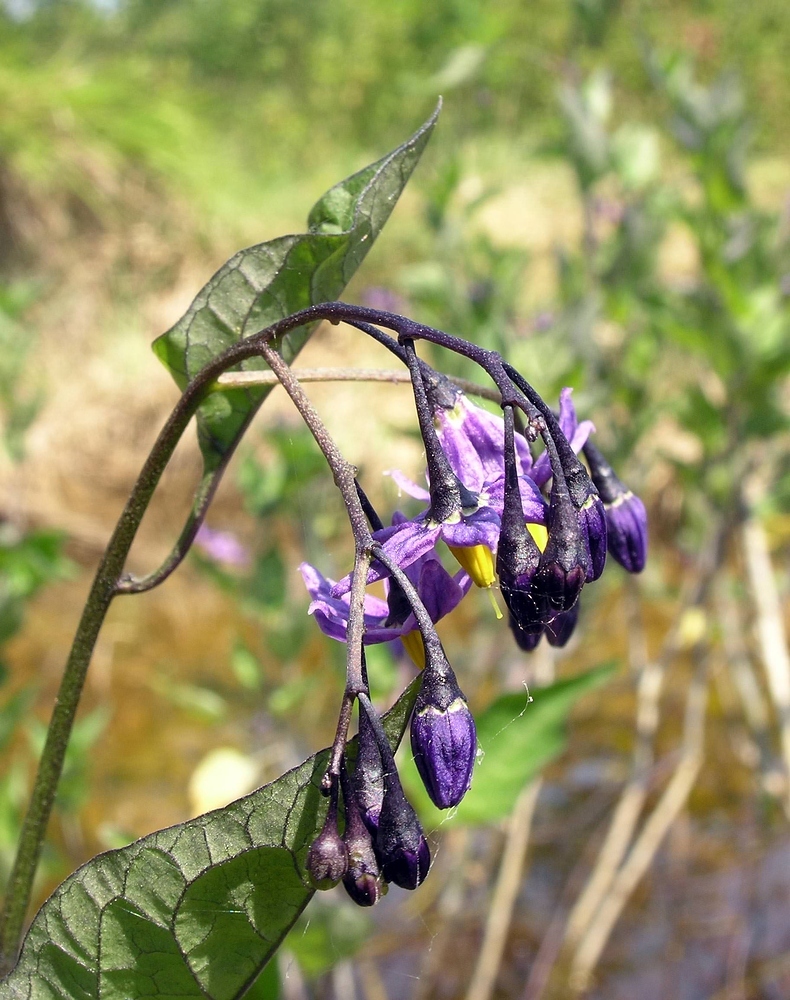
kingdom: Plantae
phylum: Tracheophyta
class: Magnoliopsida
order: Solanales
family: Solanaceae
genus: Solanum
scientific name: Solanum dulcamara
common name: Climbing nightshade
